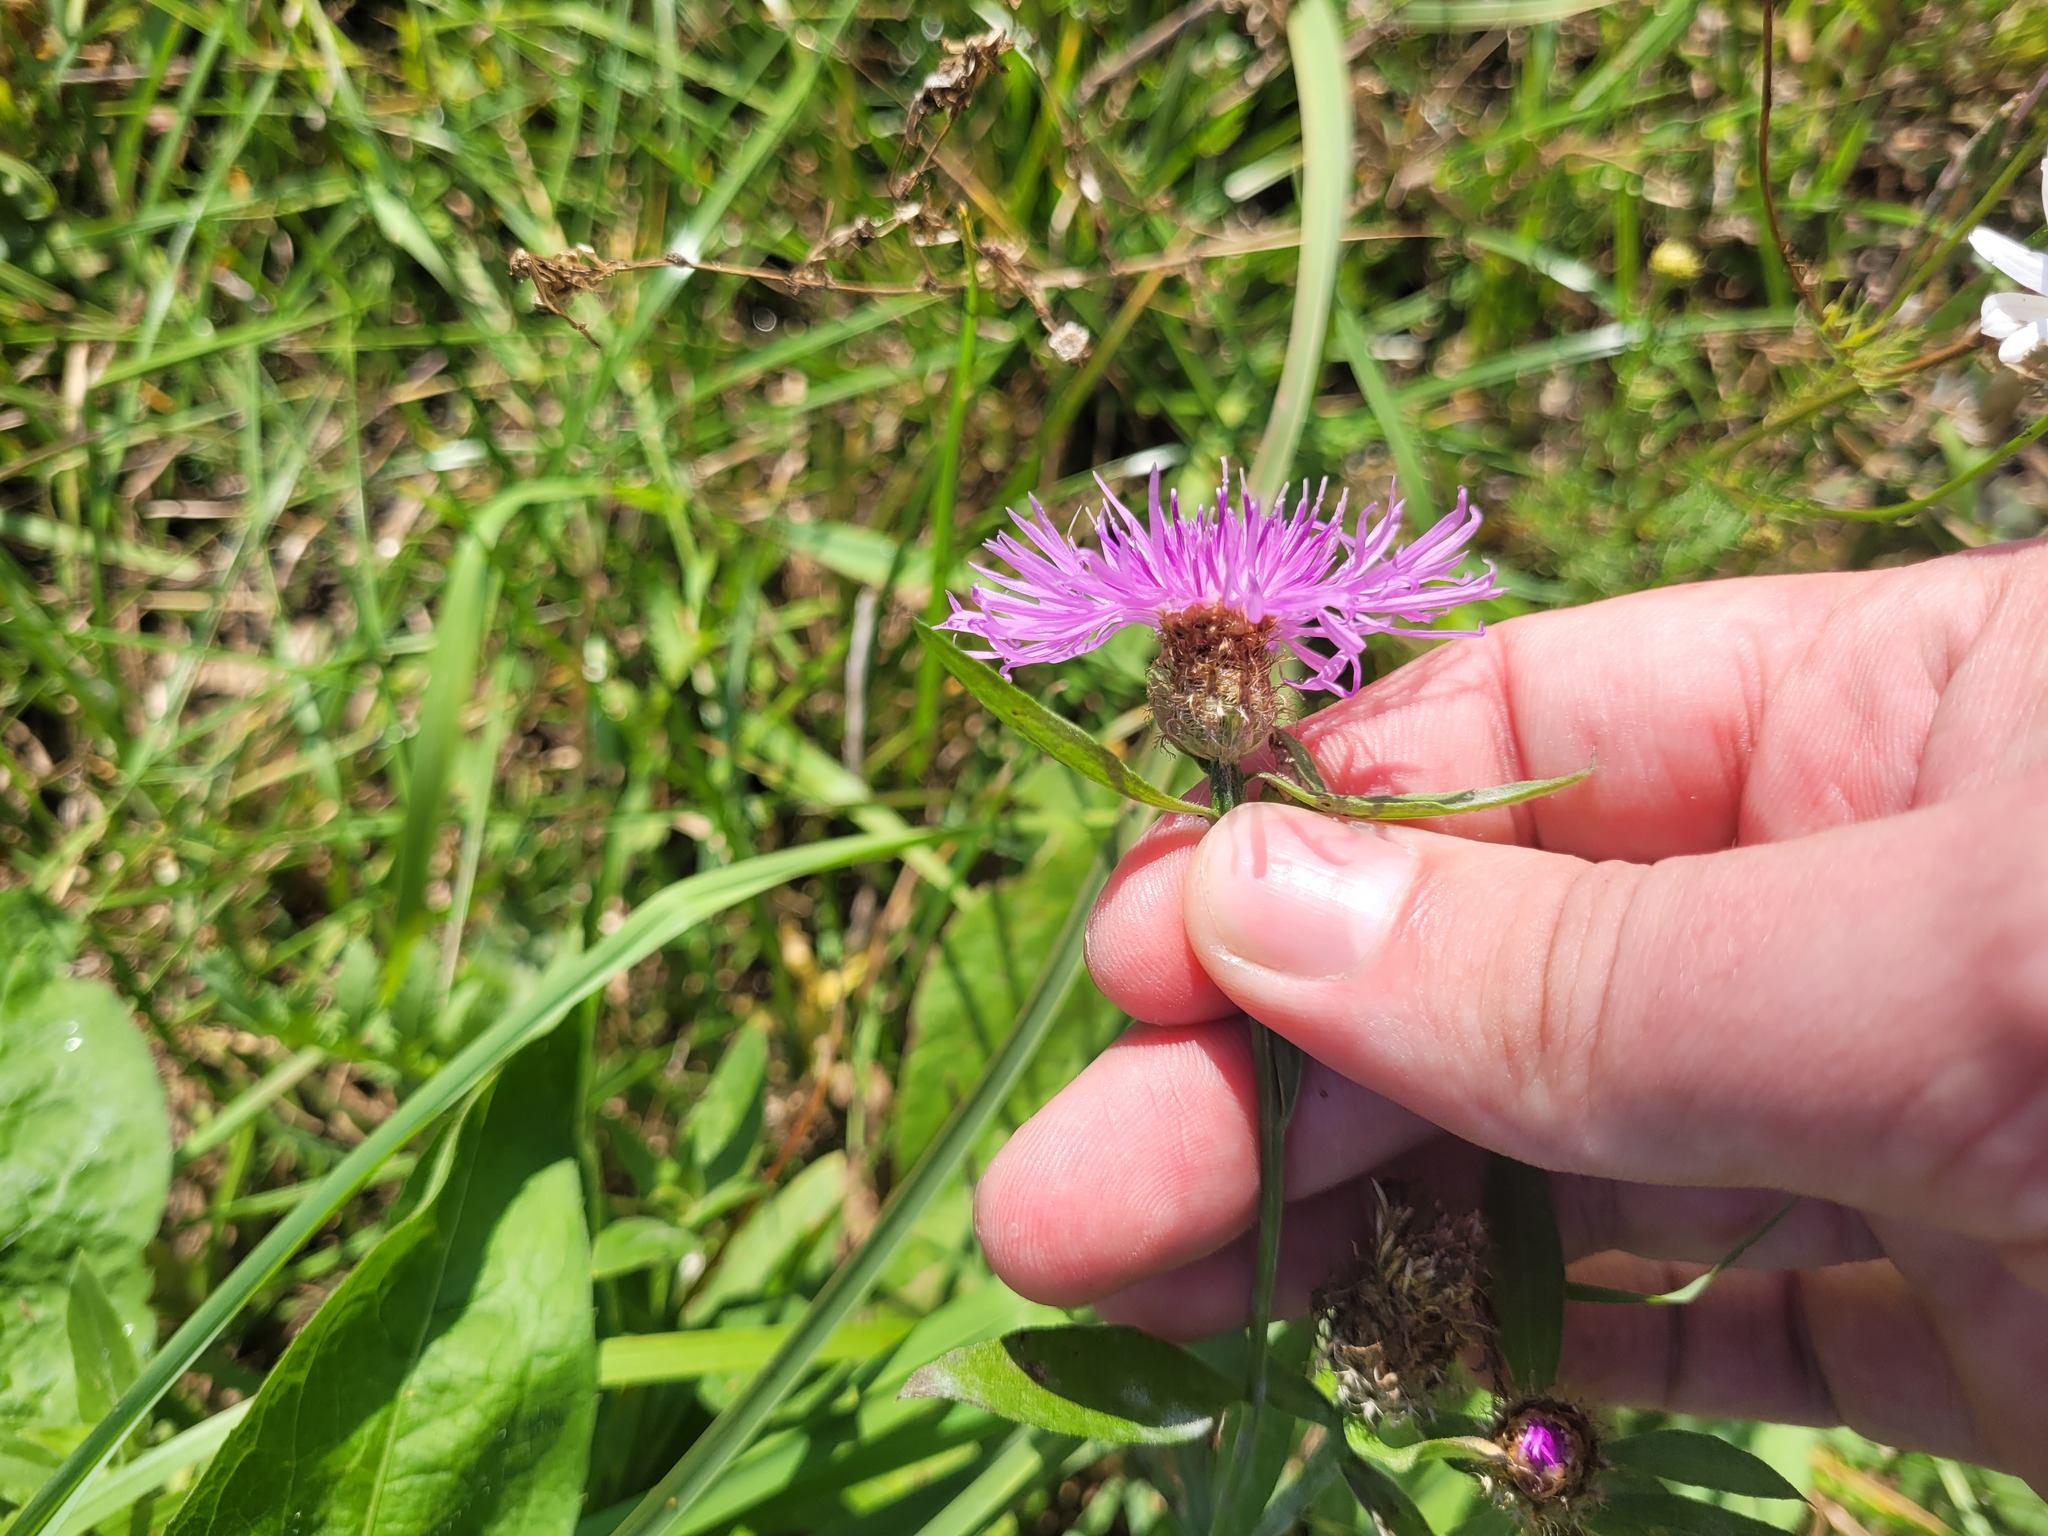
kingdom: Plantae
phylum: Tracheophyta
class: Magnoliopsida
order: Asterales
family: Asteraceae
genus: Centaurea
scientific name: Centaurea livonica
